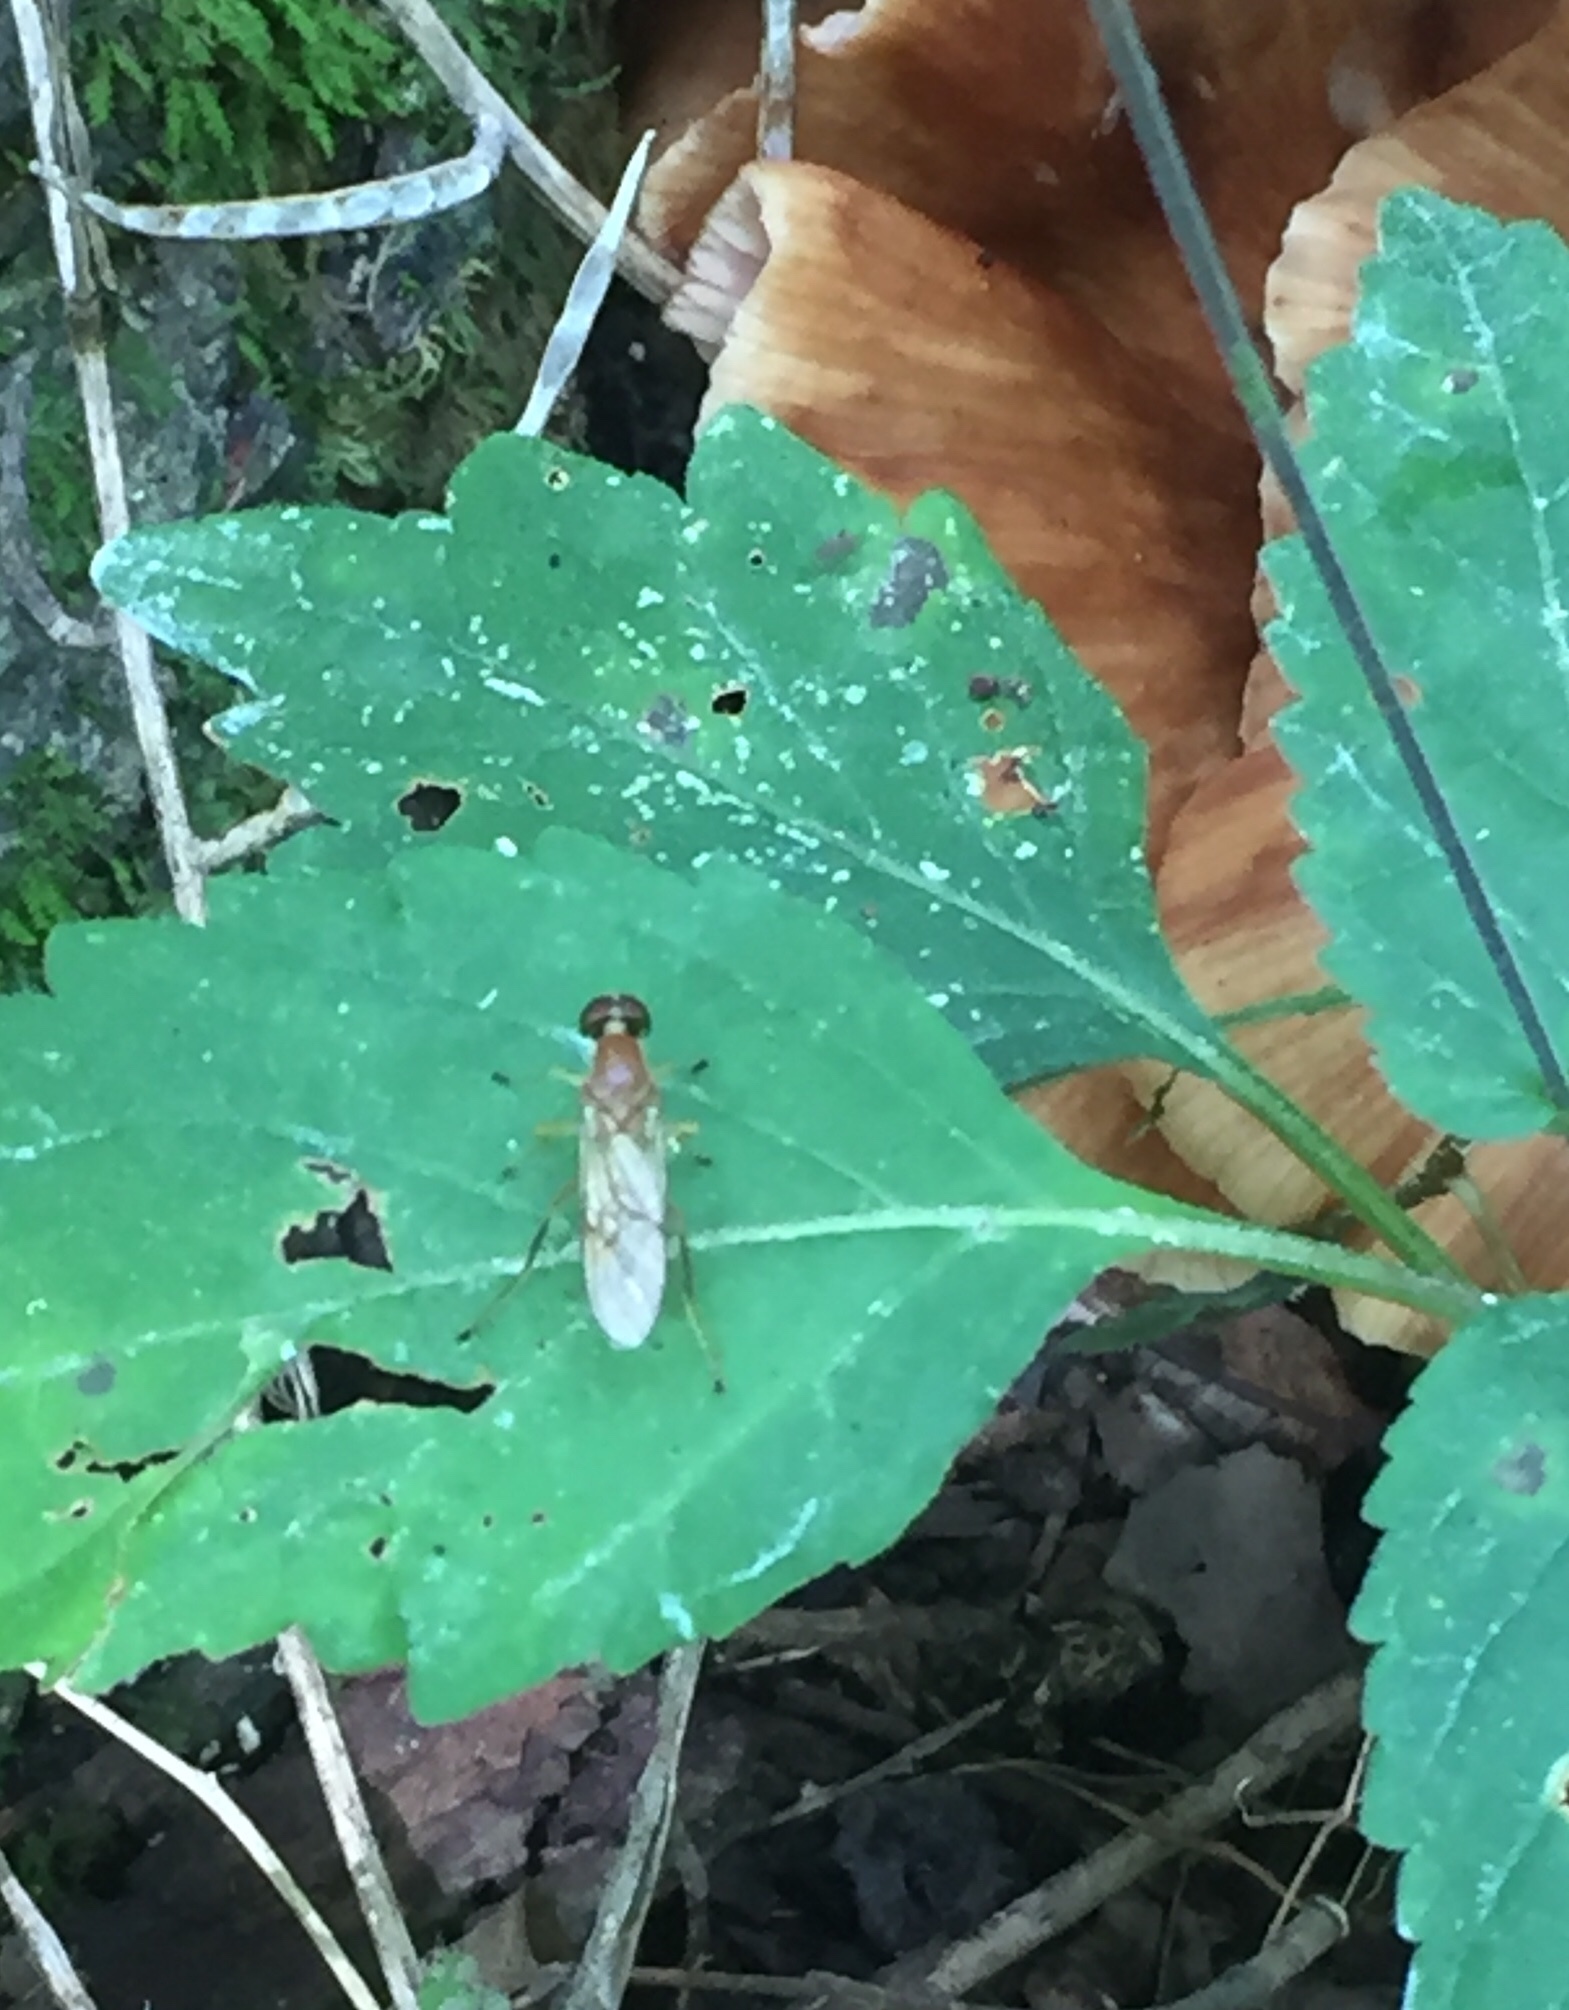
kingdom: Animalia
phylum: Arthropoda
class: Insecta
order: Diptera
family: Stratiomyidae
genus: Ptecticus
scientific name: Ptecticus trivittatus
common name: Compost fly
